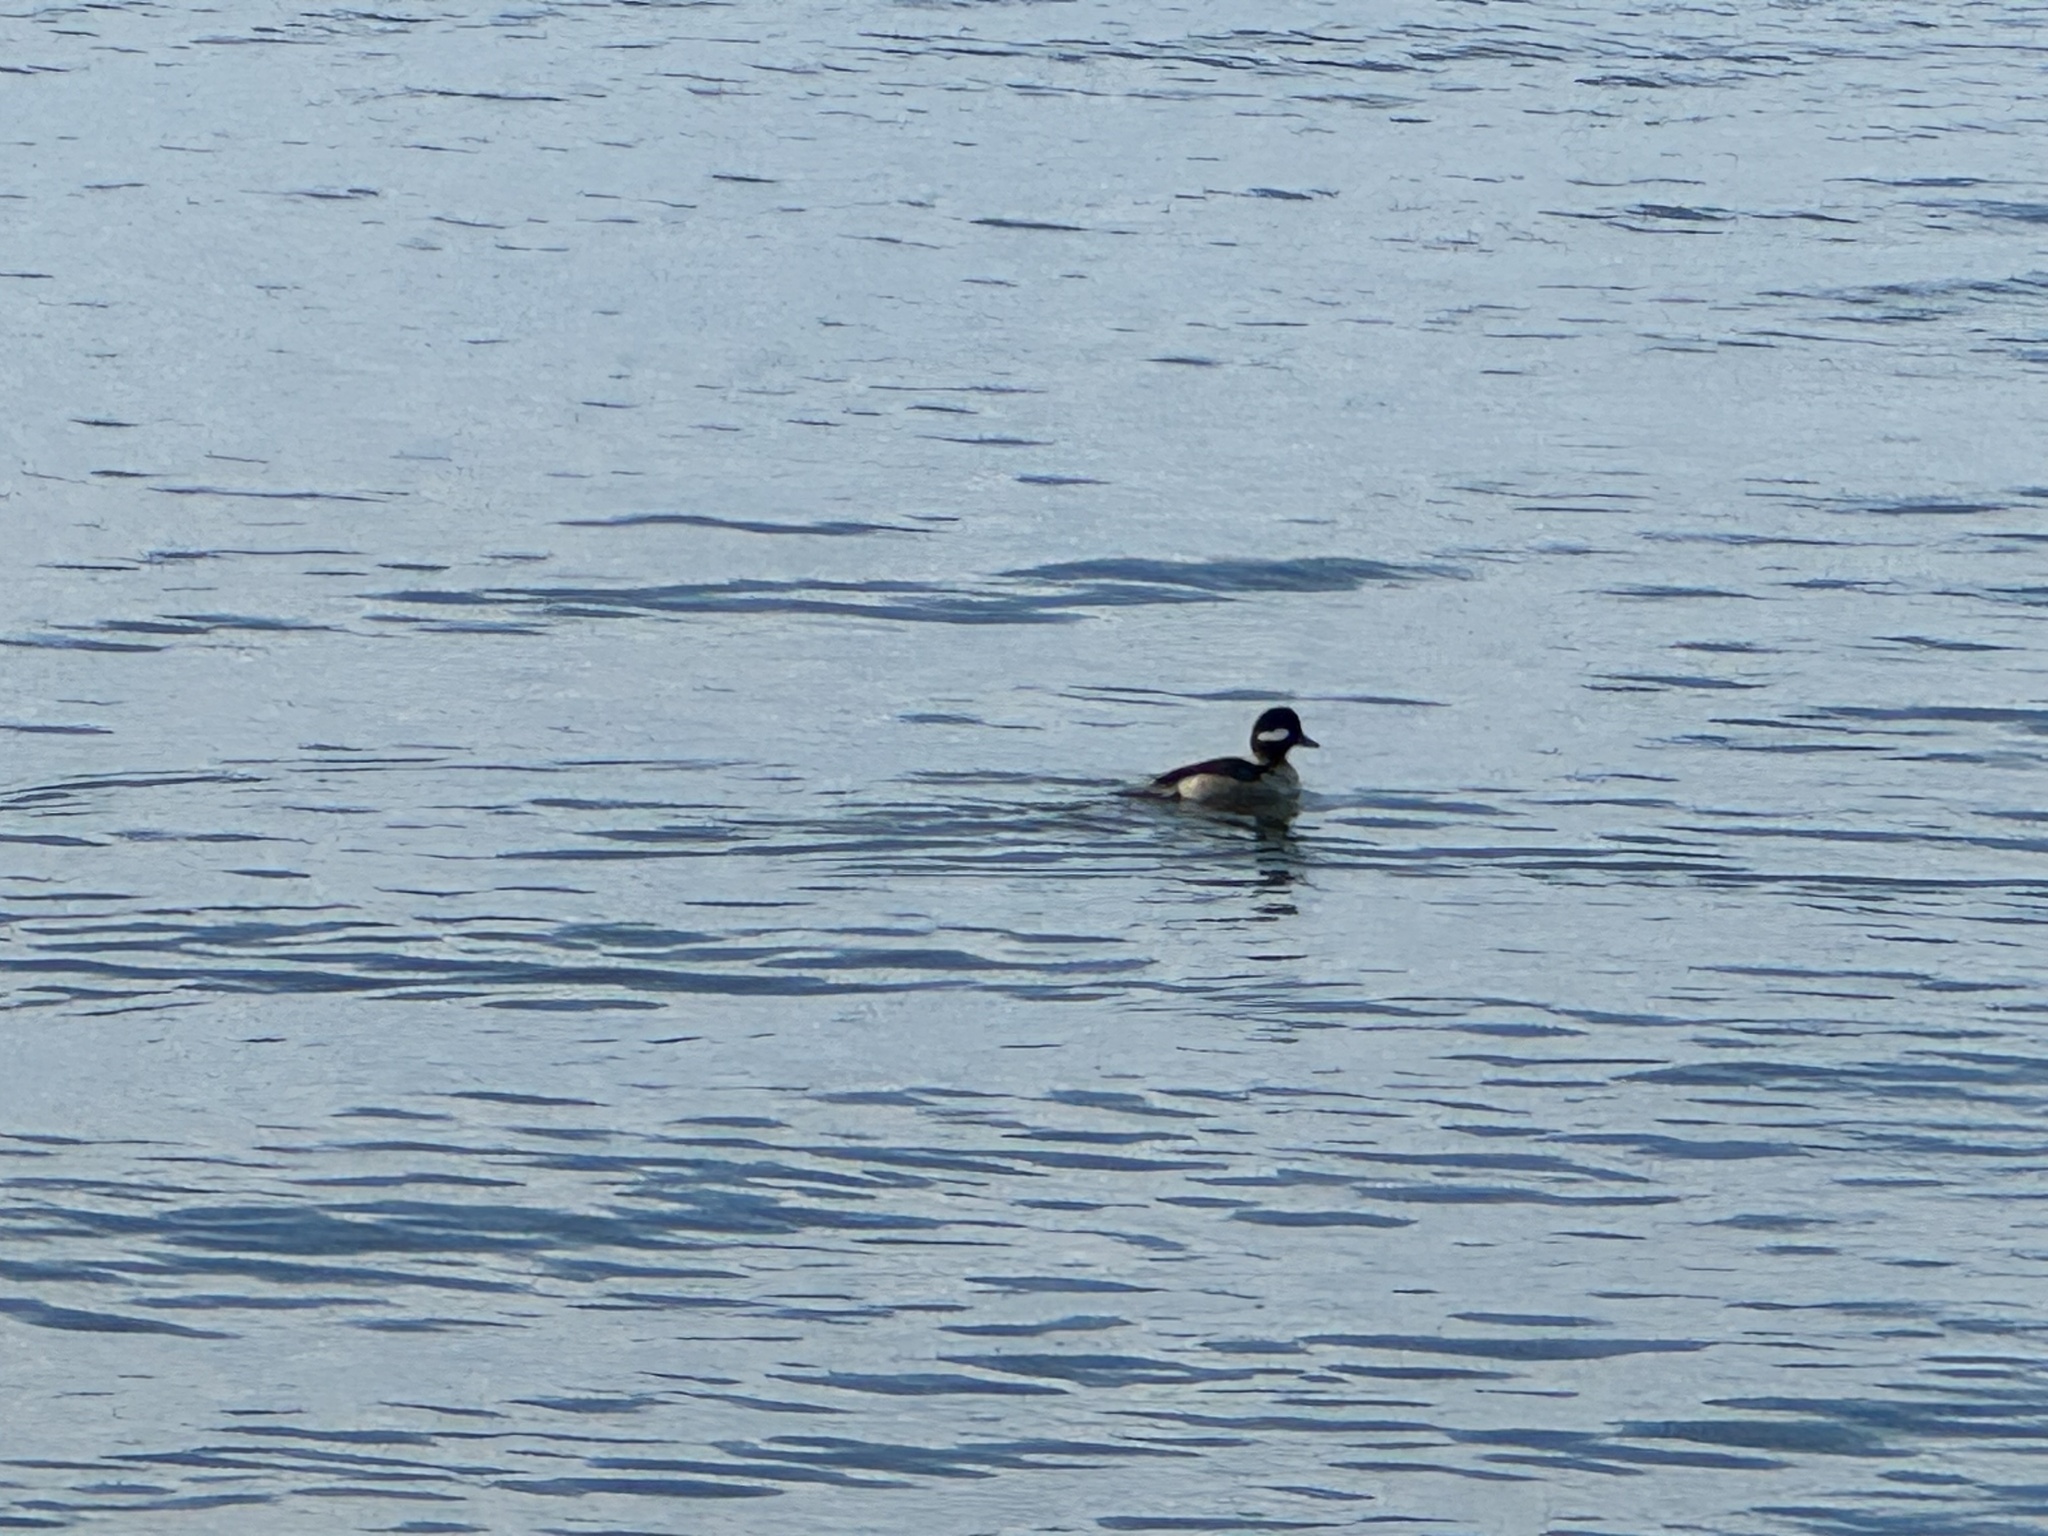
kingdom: Animalia
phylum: Chordata
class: Aves
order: Anseriformes
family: Anatidae
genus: Bucephala
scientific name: Bucephala albeola
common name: Bufflehead
